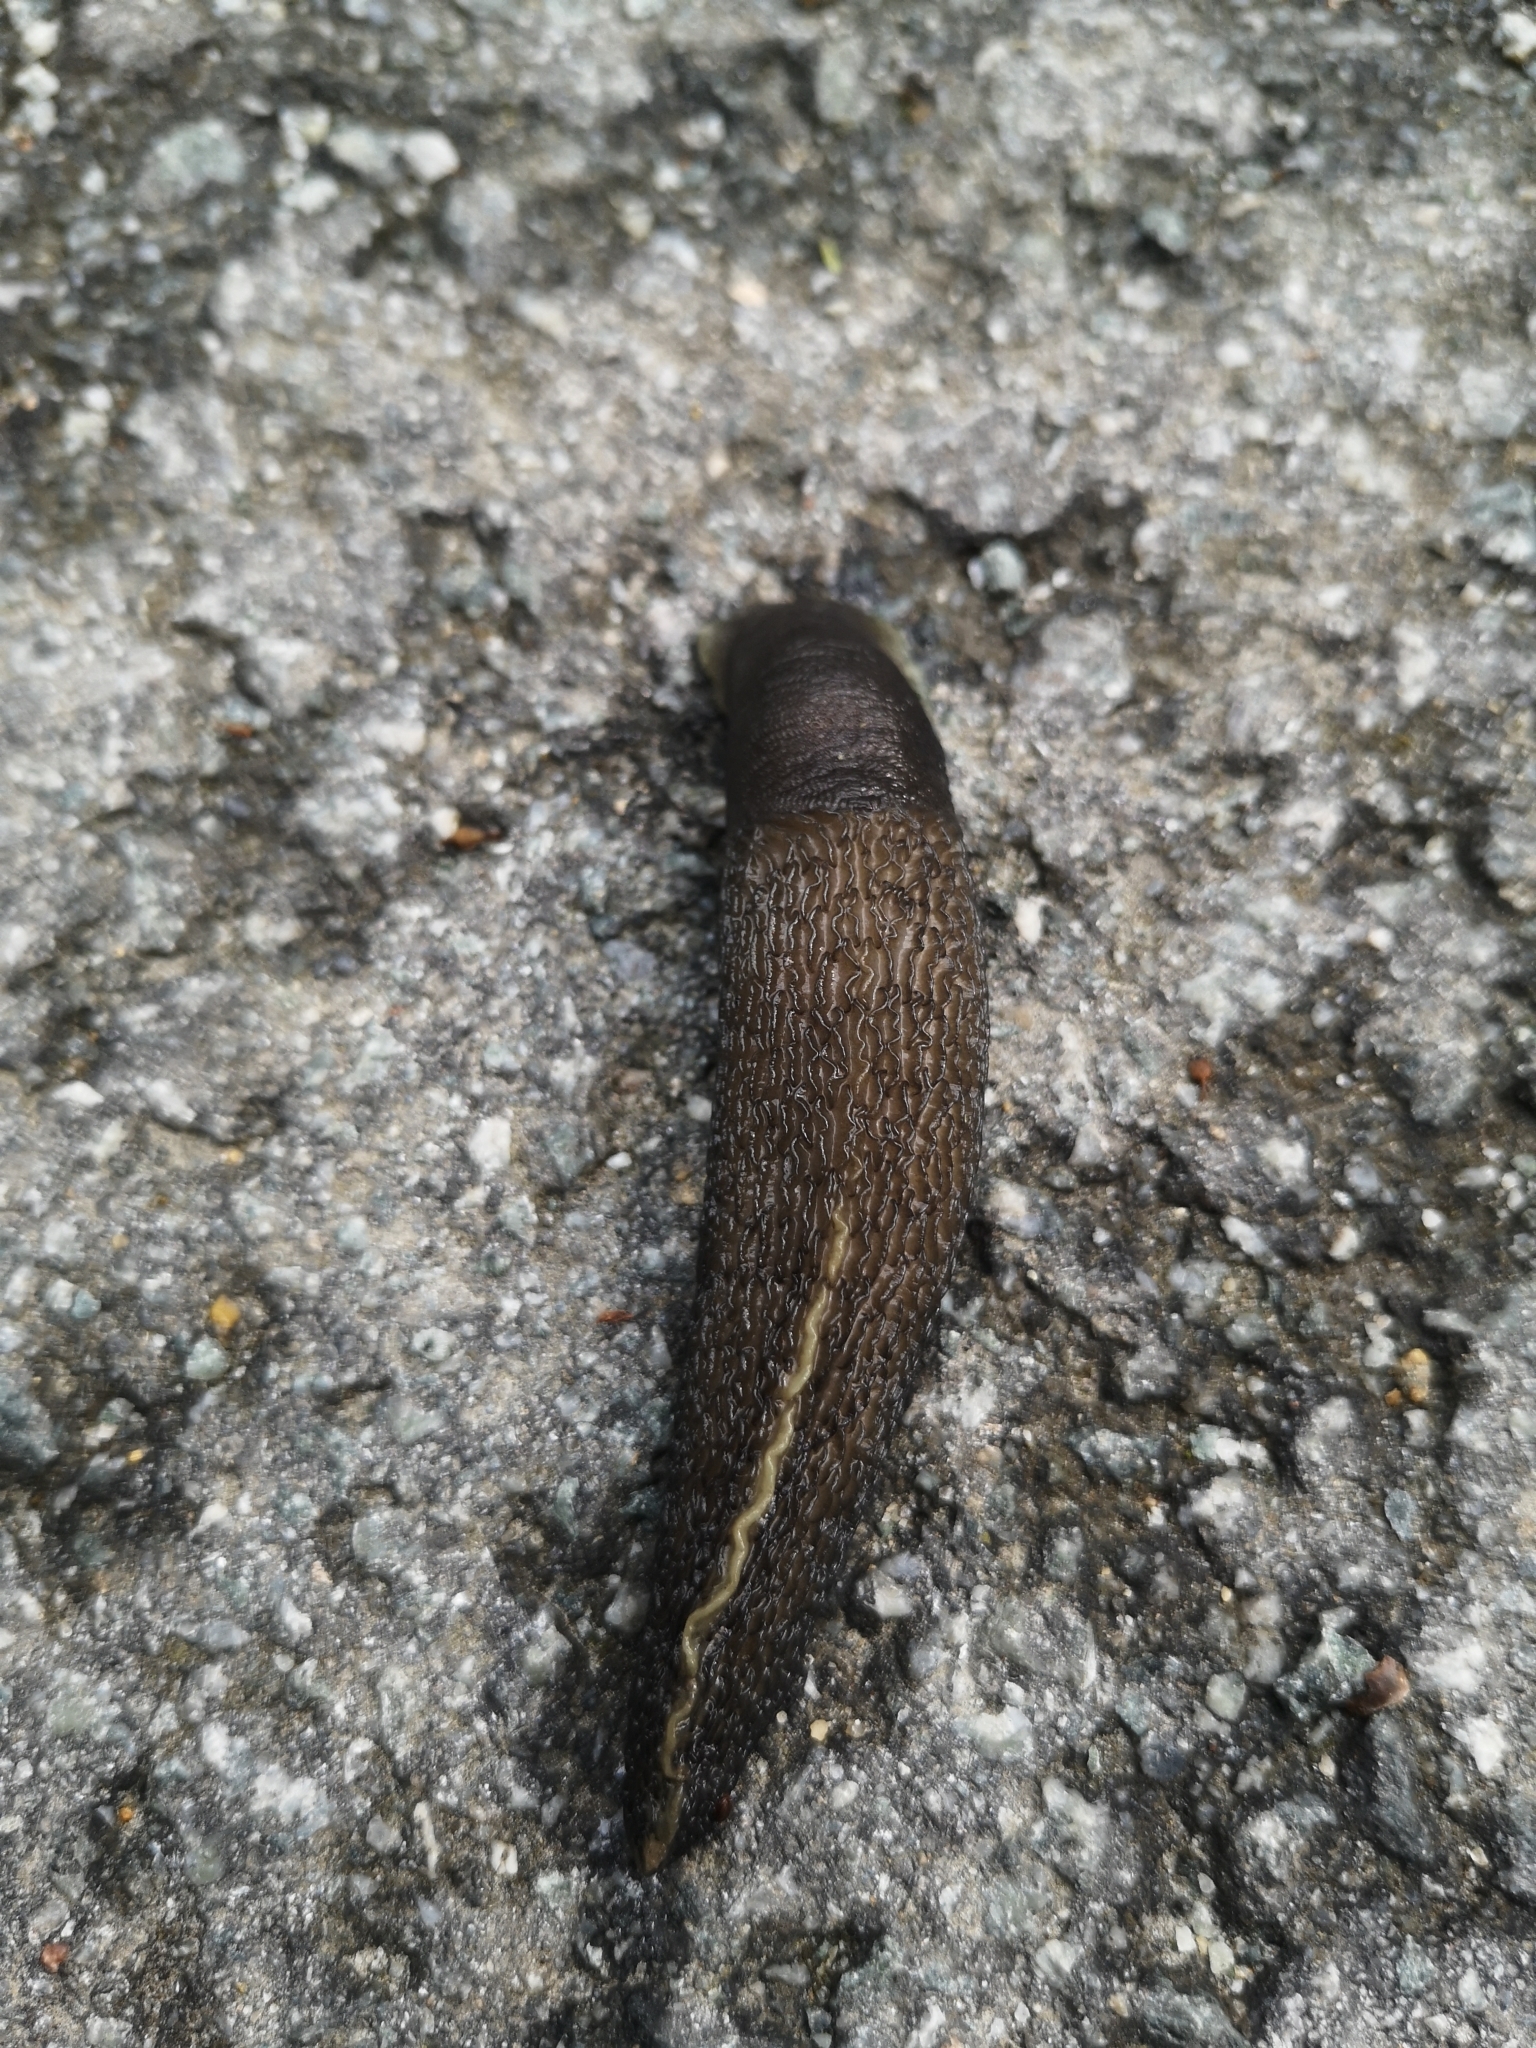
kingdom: Animalia
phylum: Mollusca
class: Gastropoda
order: Stylommatophora
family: Limacidae
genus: Limax
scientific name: Limax cinereoniger
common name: Ash-black slug
